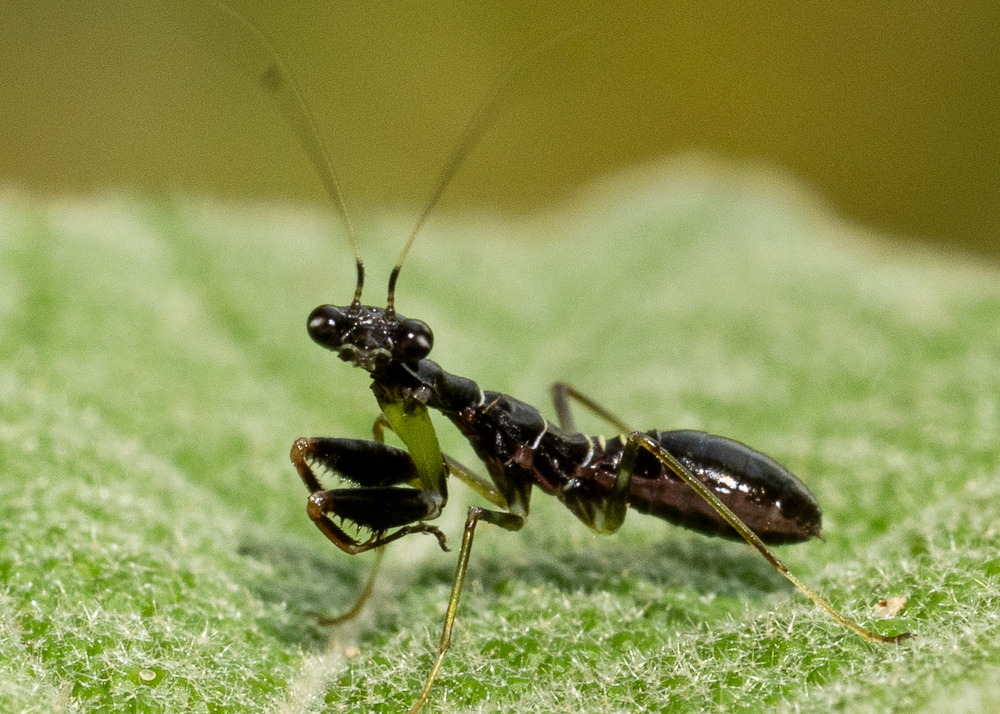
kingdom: Animalia
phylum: Arthropoda
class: Insecta
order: Mantodea
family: Hymenopodidae
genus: Odontomantis
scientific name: Odontomantis planiceps
